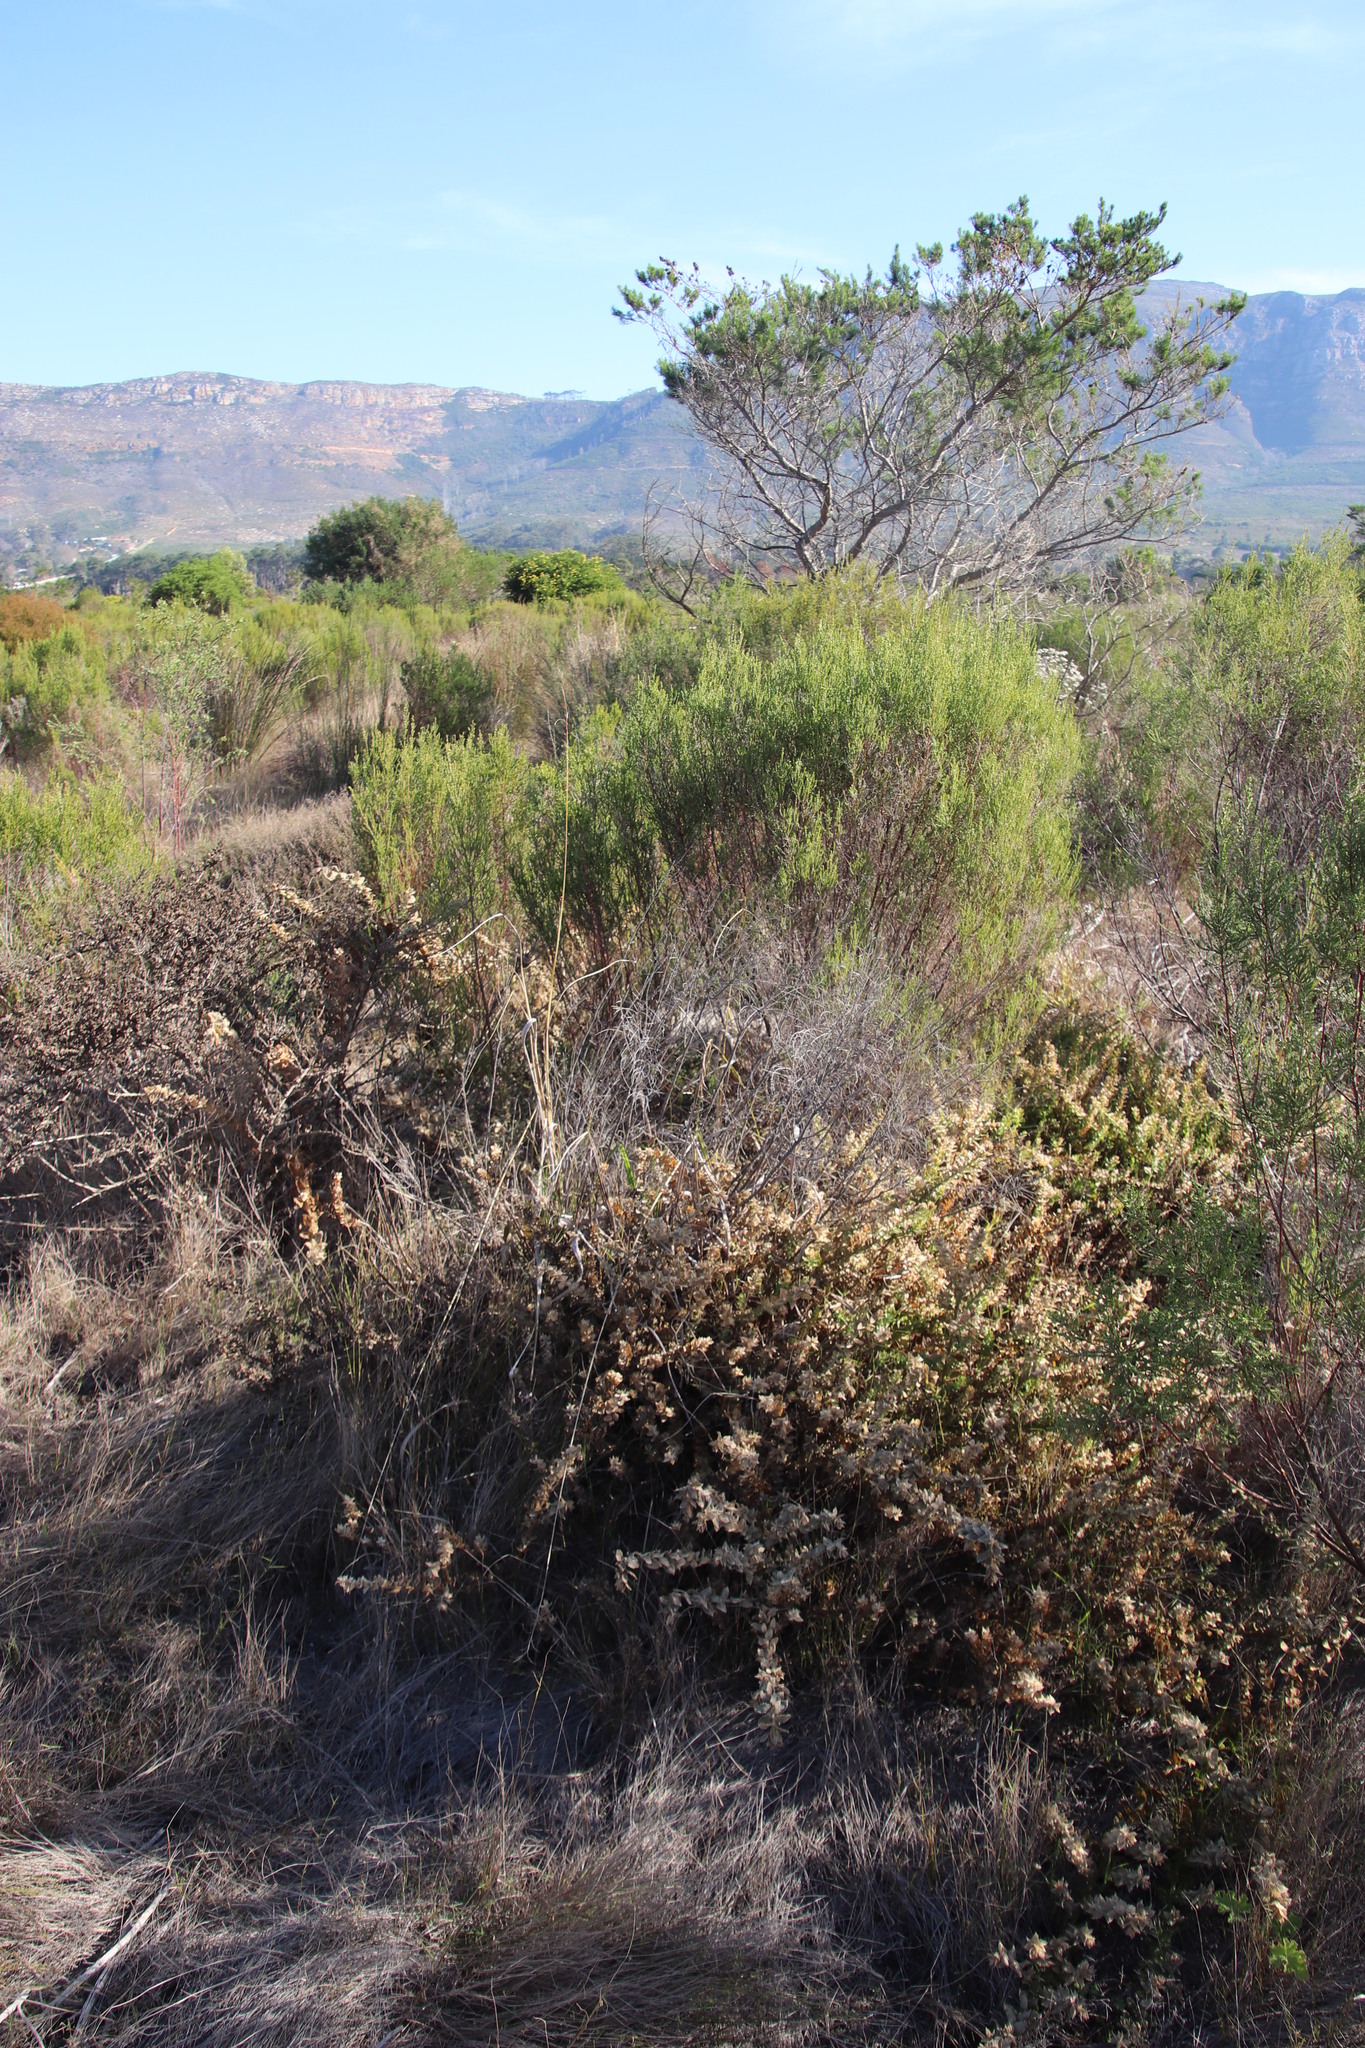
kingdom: Plantae
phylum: Tracheophyta
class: Magnoliopsida
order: Lamiales
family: Scrophulariaceae
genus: Oftia
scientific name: Oftia africana
